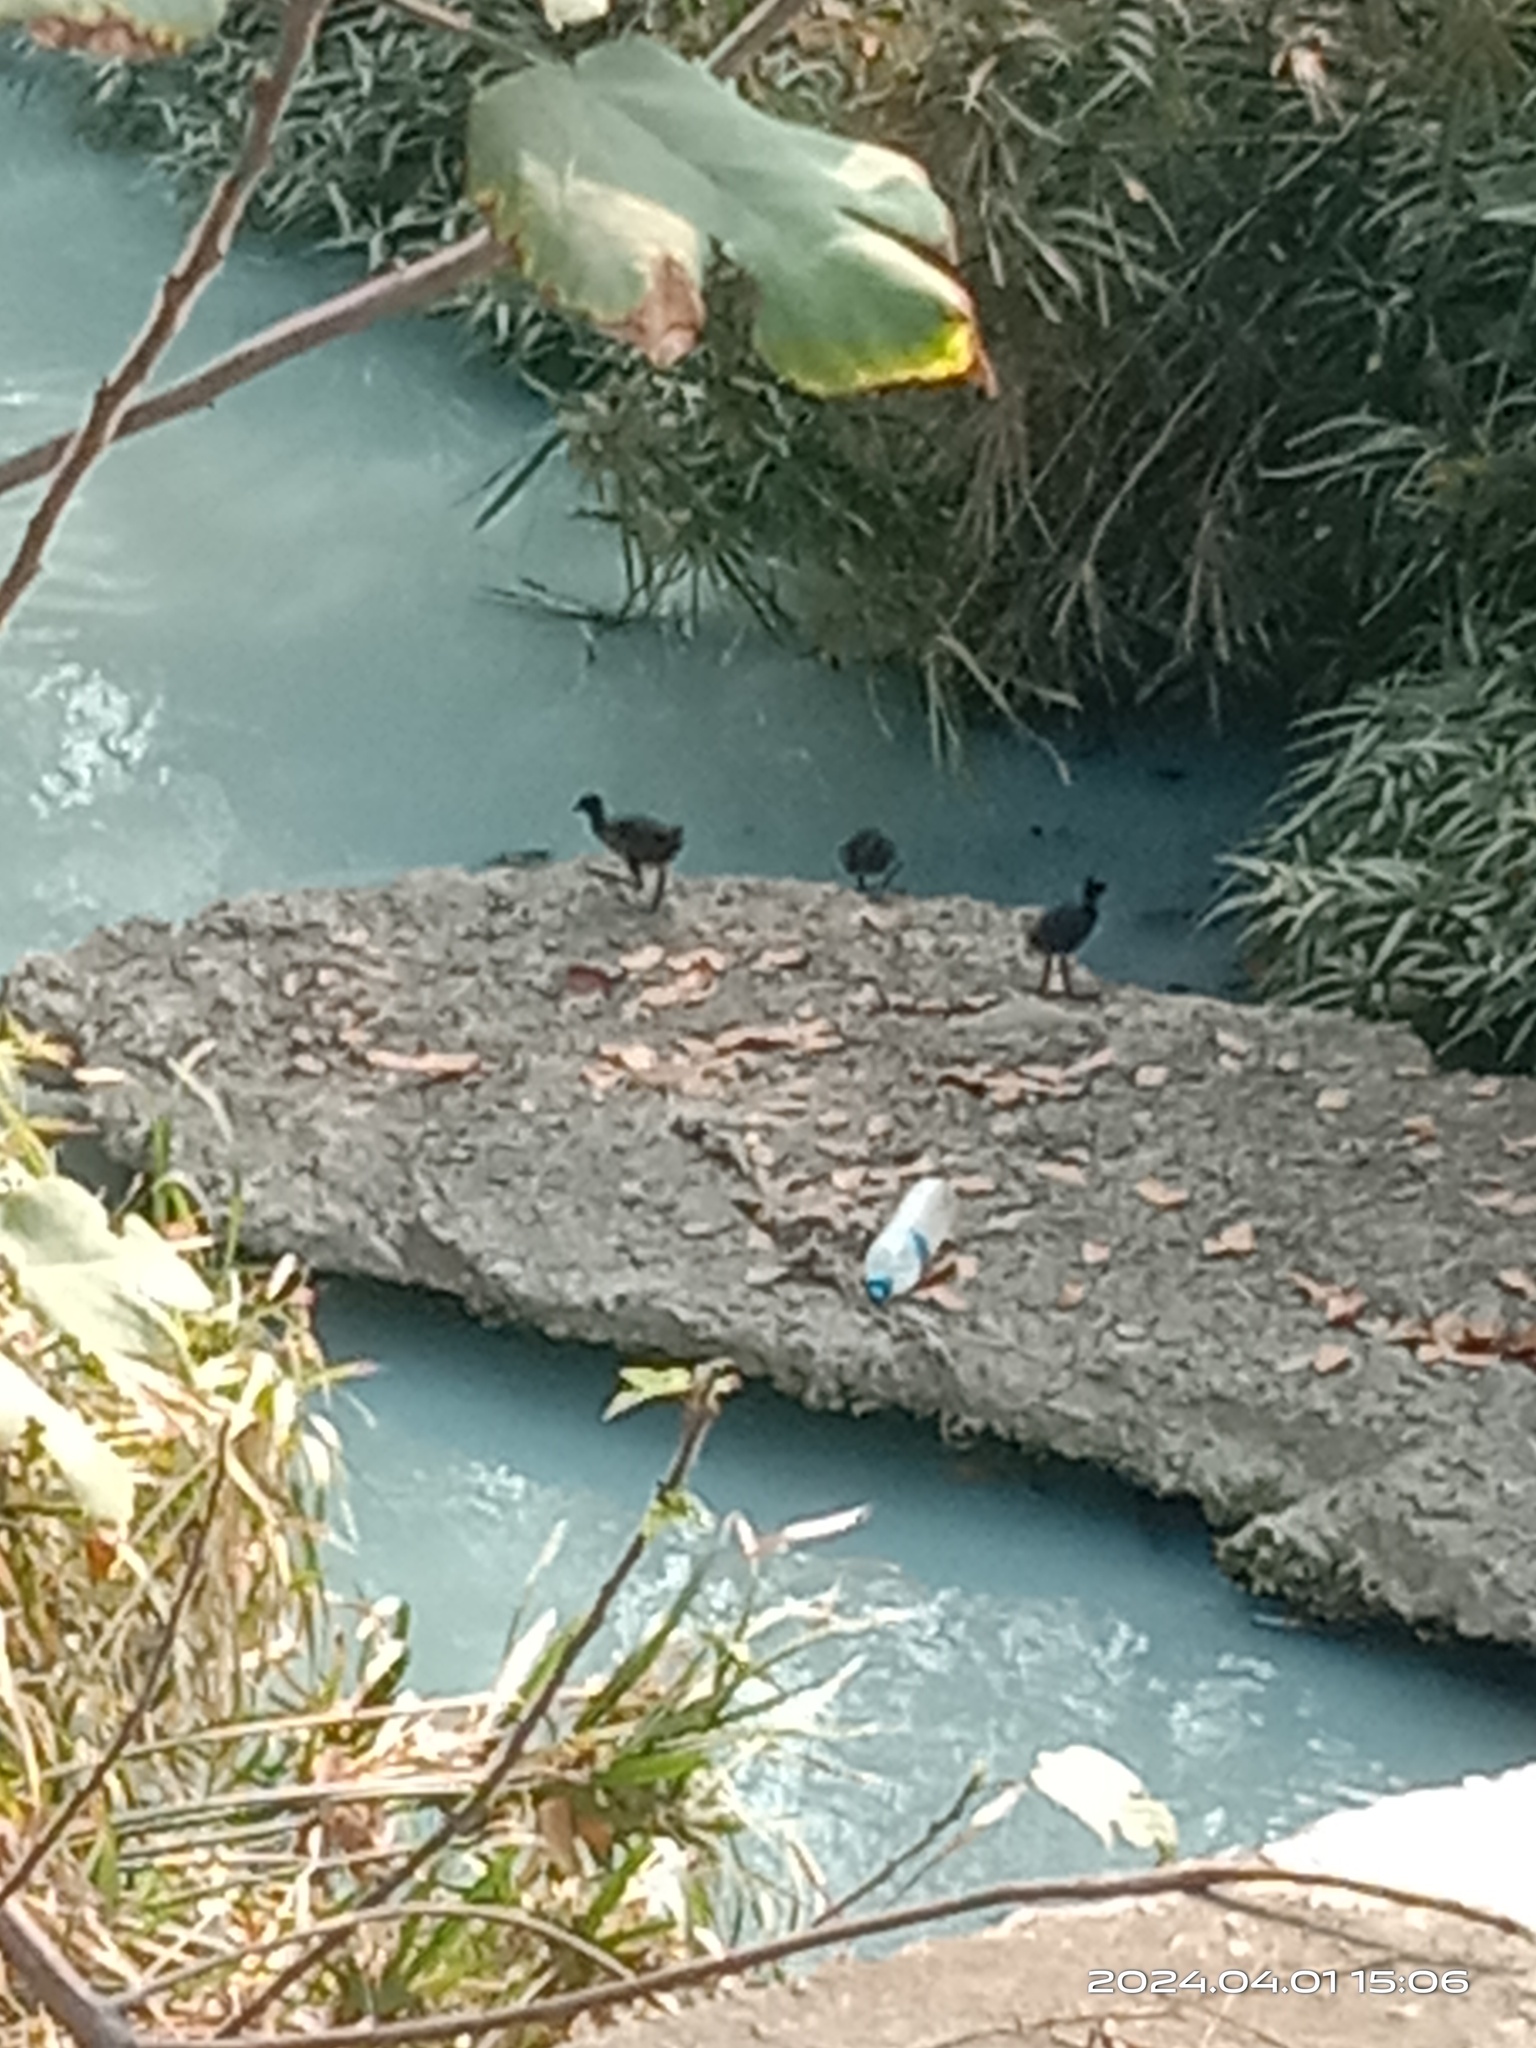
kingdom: Animalia
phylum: Chordata
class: Aves
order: Gruiformes
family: Rallidae
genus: Amaurornis
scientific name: Amaurornis phoenicurus
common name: White-breasted waterhen
